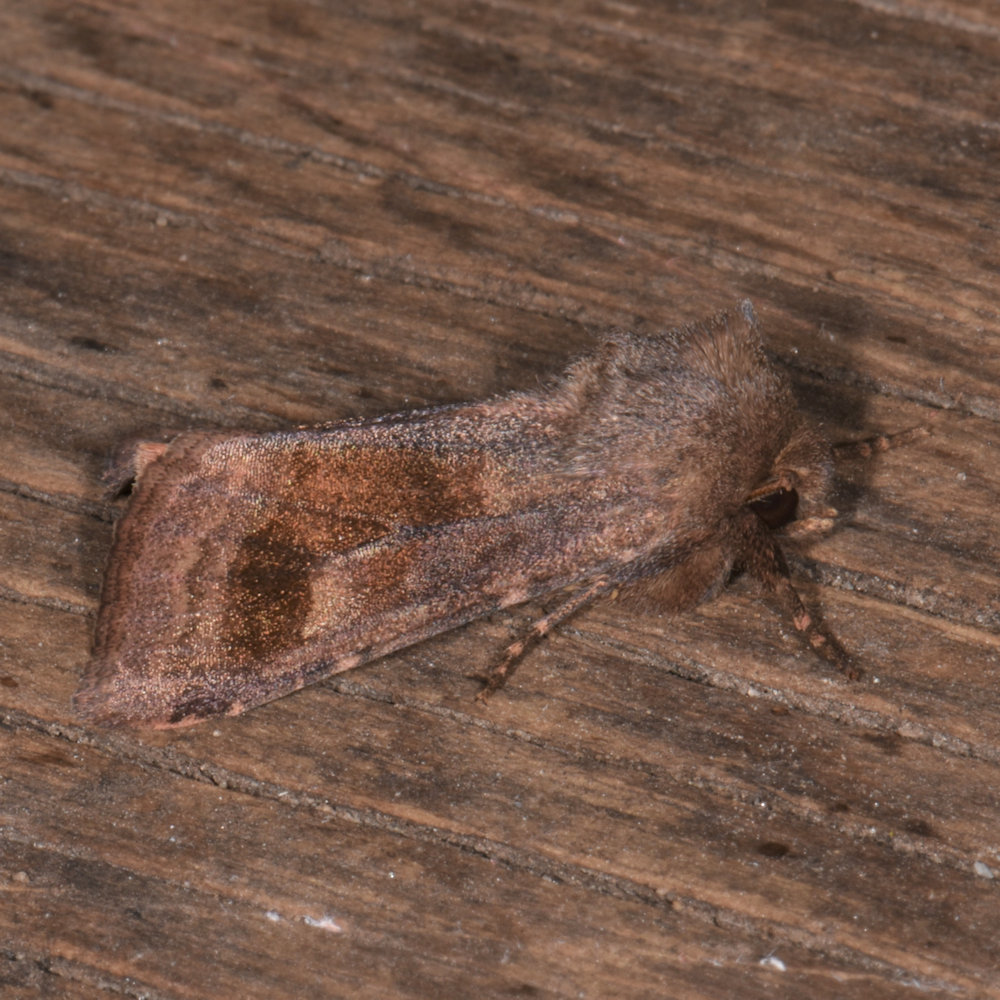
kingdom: Animalia
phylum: Arthropoda
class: Insecta
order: Lepidoptera
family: Noctuidae
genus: Nephelodes
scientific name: Nephelodes minians
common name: Bronzed cutworm
